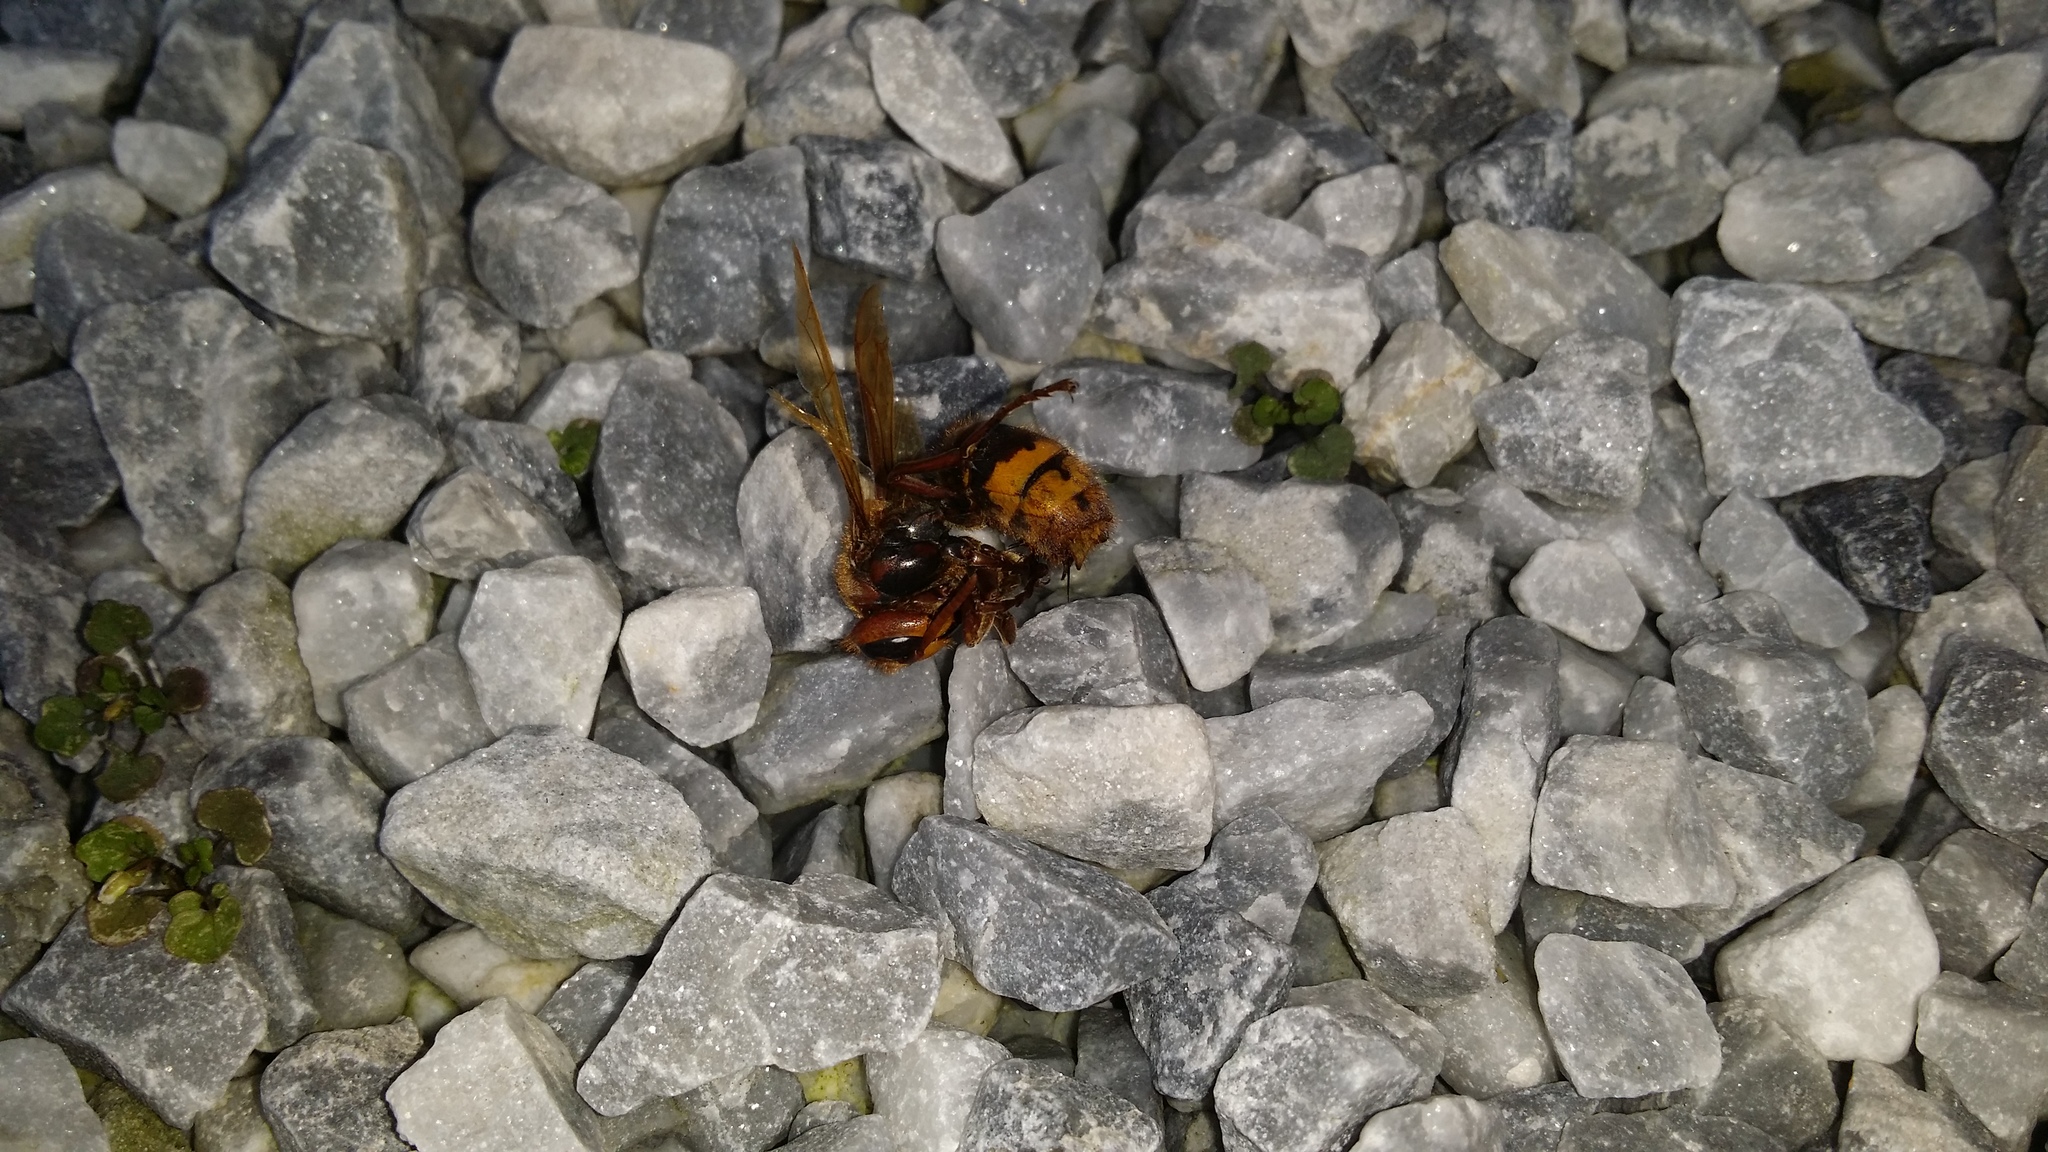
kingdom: Animalia
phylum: Arthropoda
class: Insecta
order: Hymenoptera
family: Vespidae
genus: Vespa
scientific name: Vespa crabro
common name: Hornet
